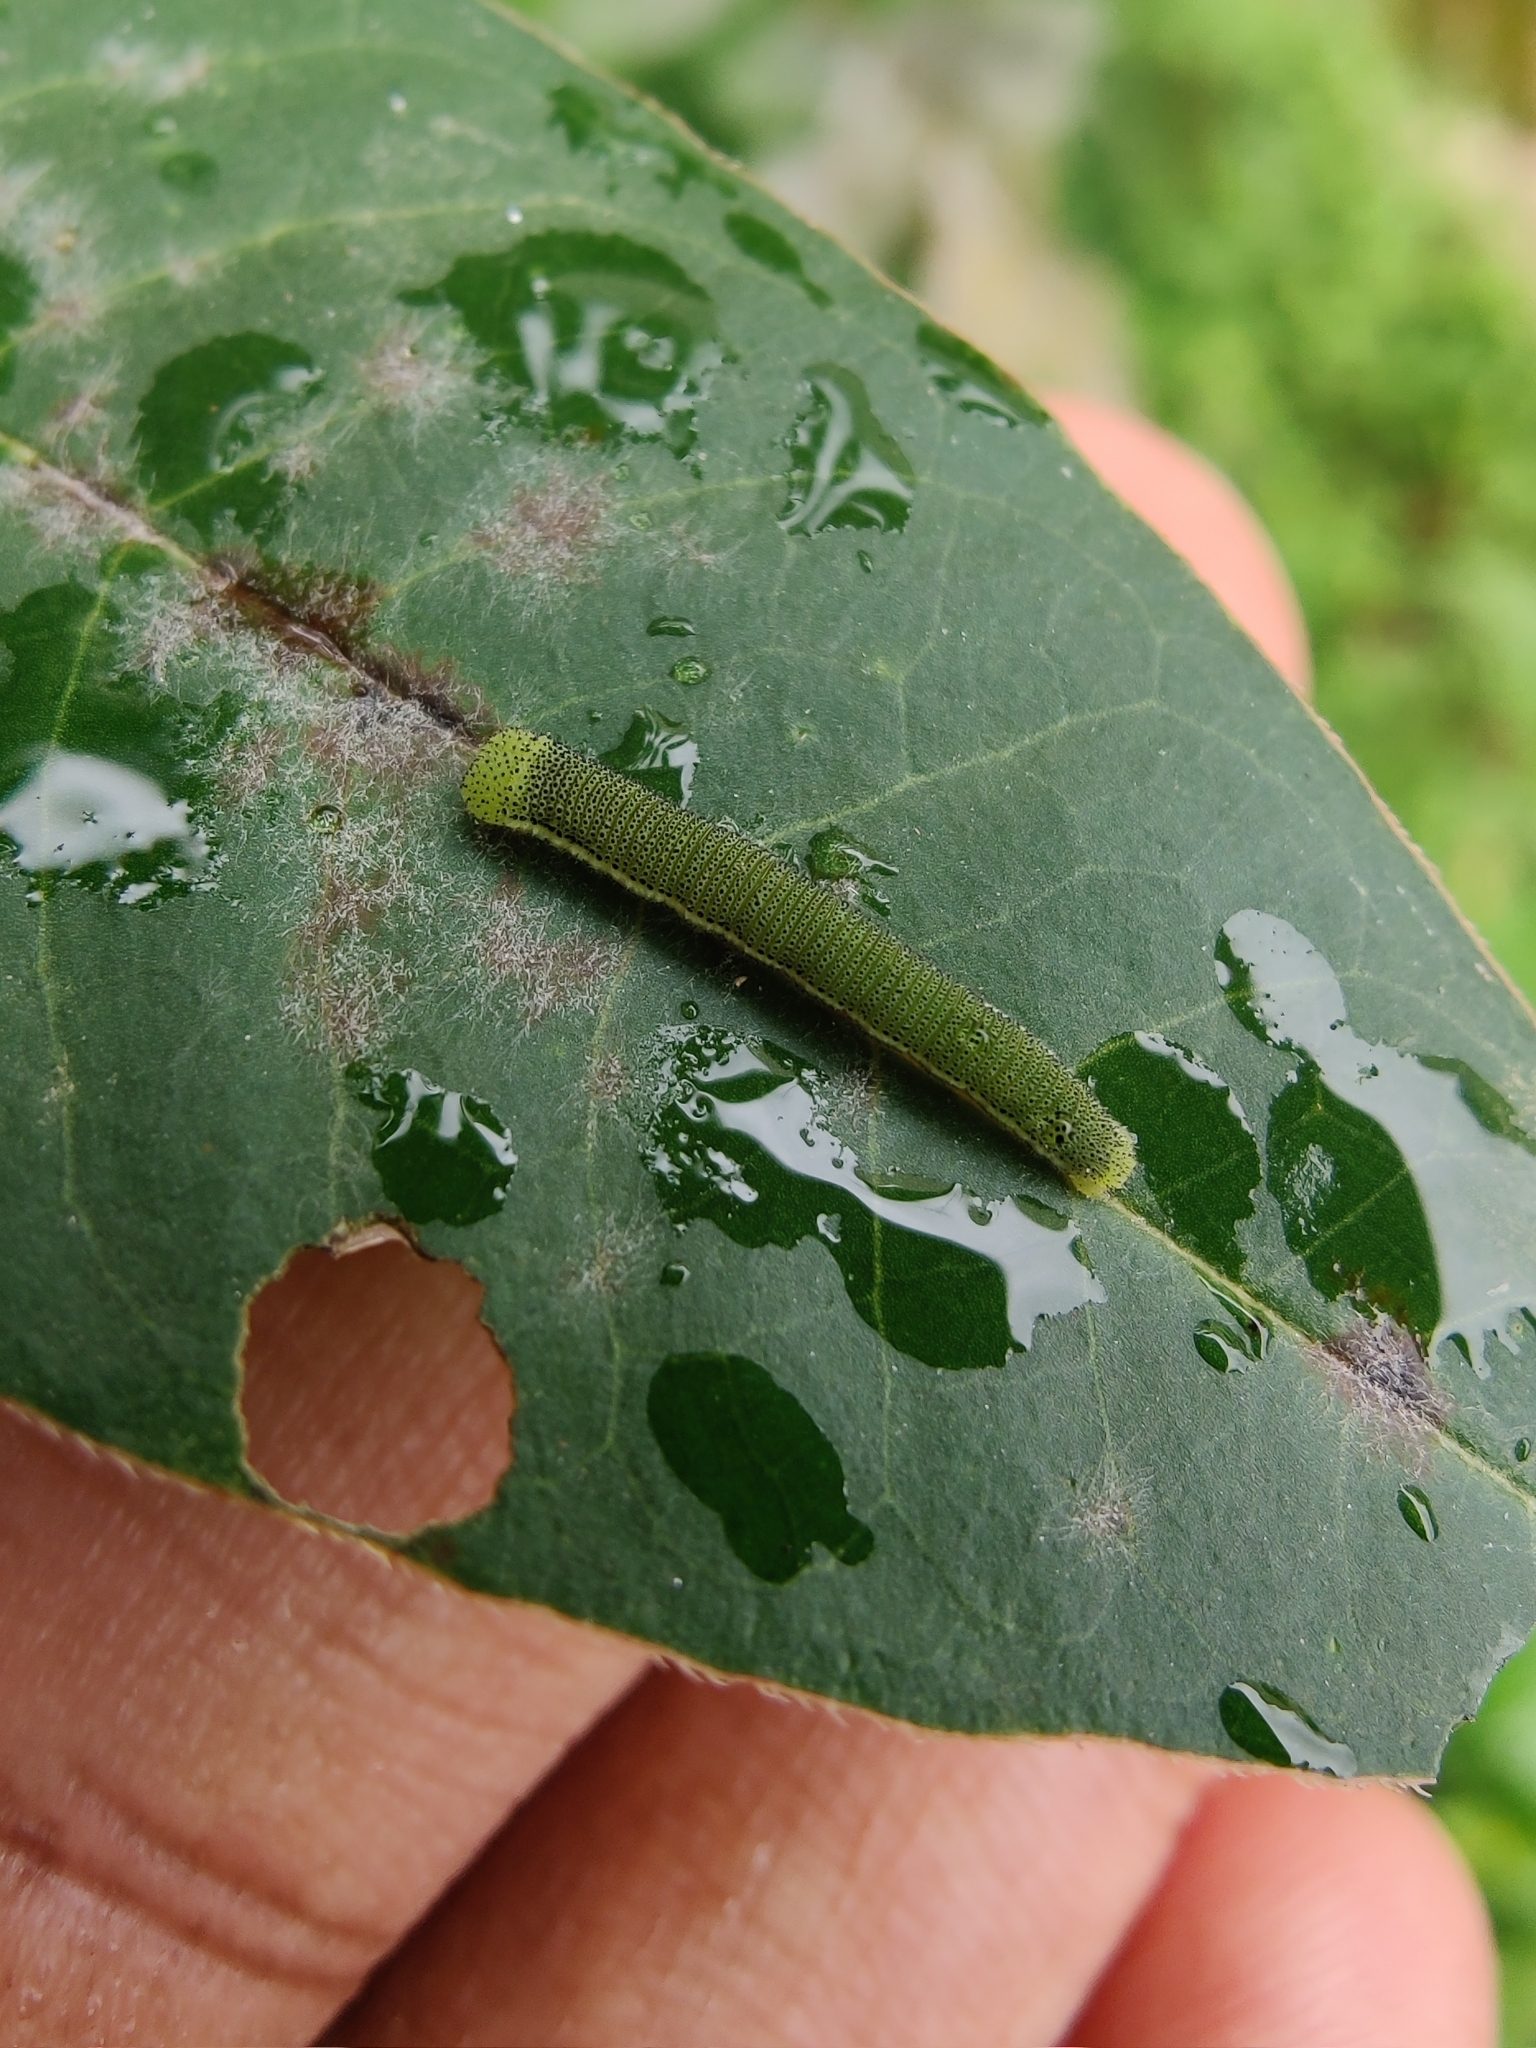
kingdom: Animalia
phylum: Arthropoda
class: Insecta
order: Lepidoptera
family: Pieridae
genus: Catopsilia
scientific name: Catopsilia pyranthe
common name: Mottled emigrant
